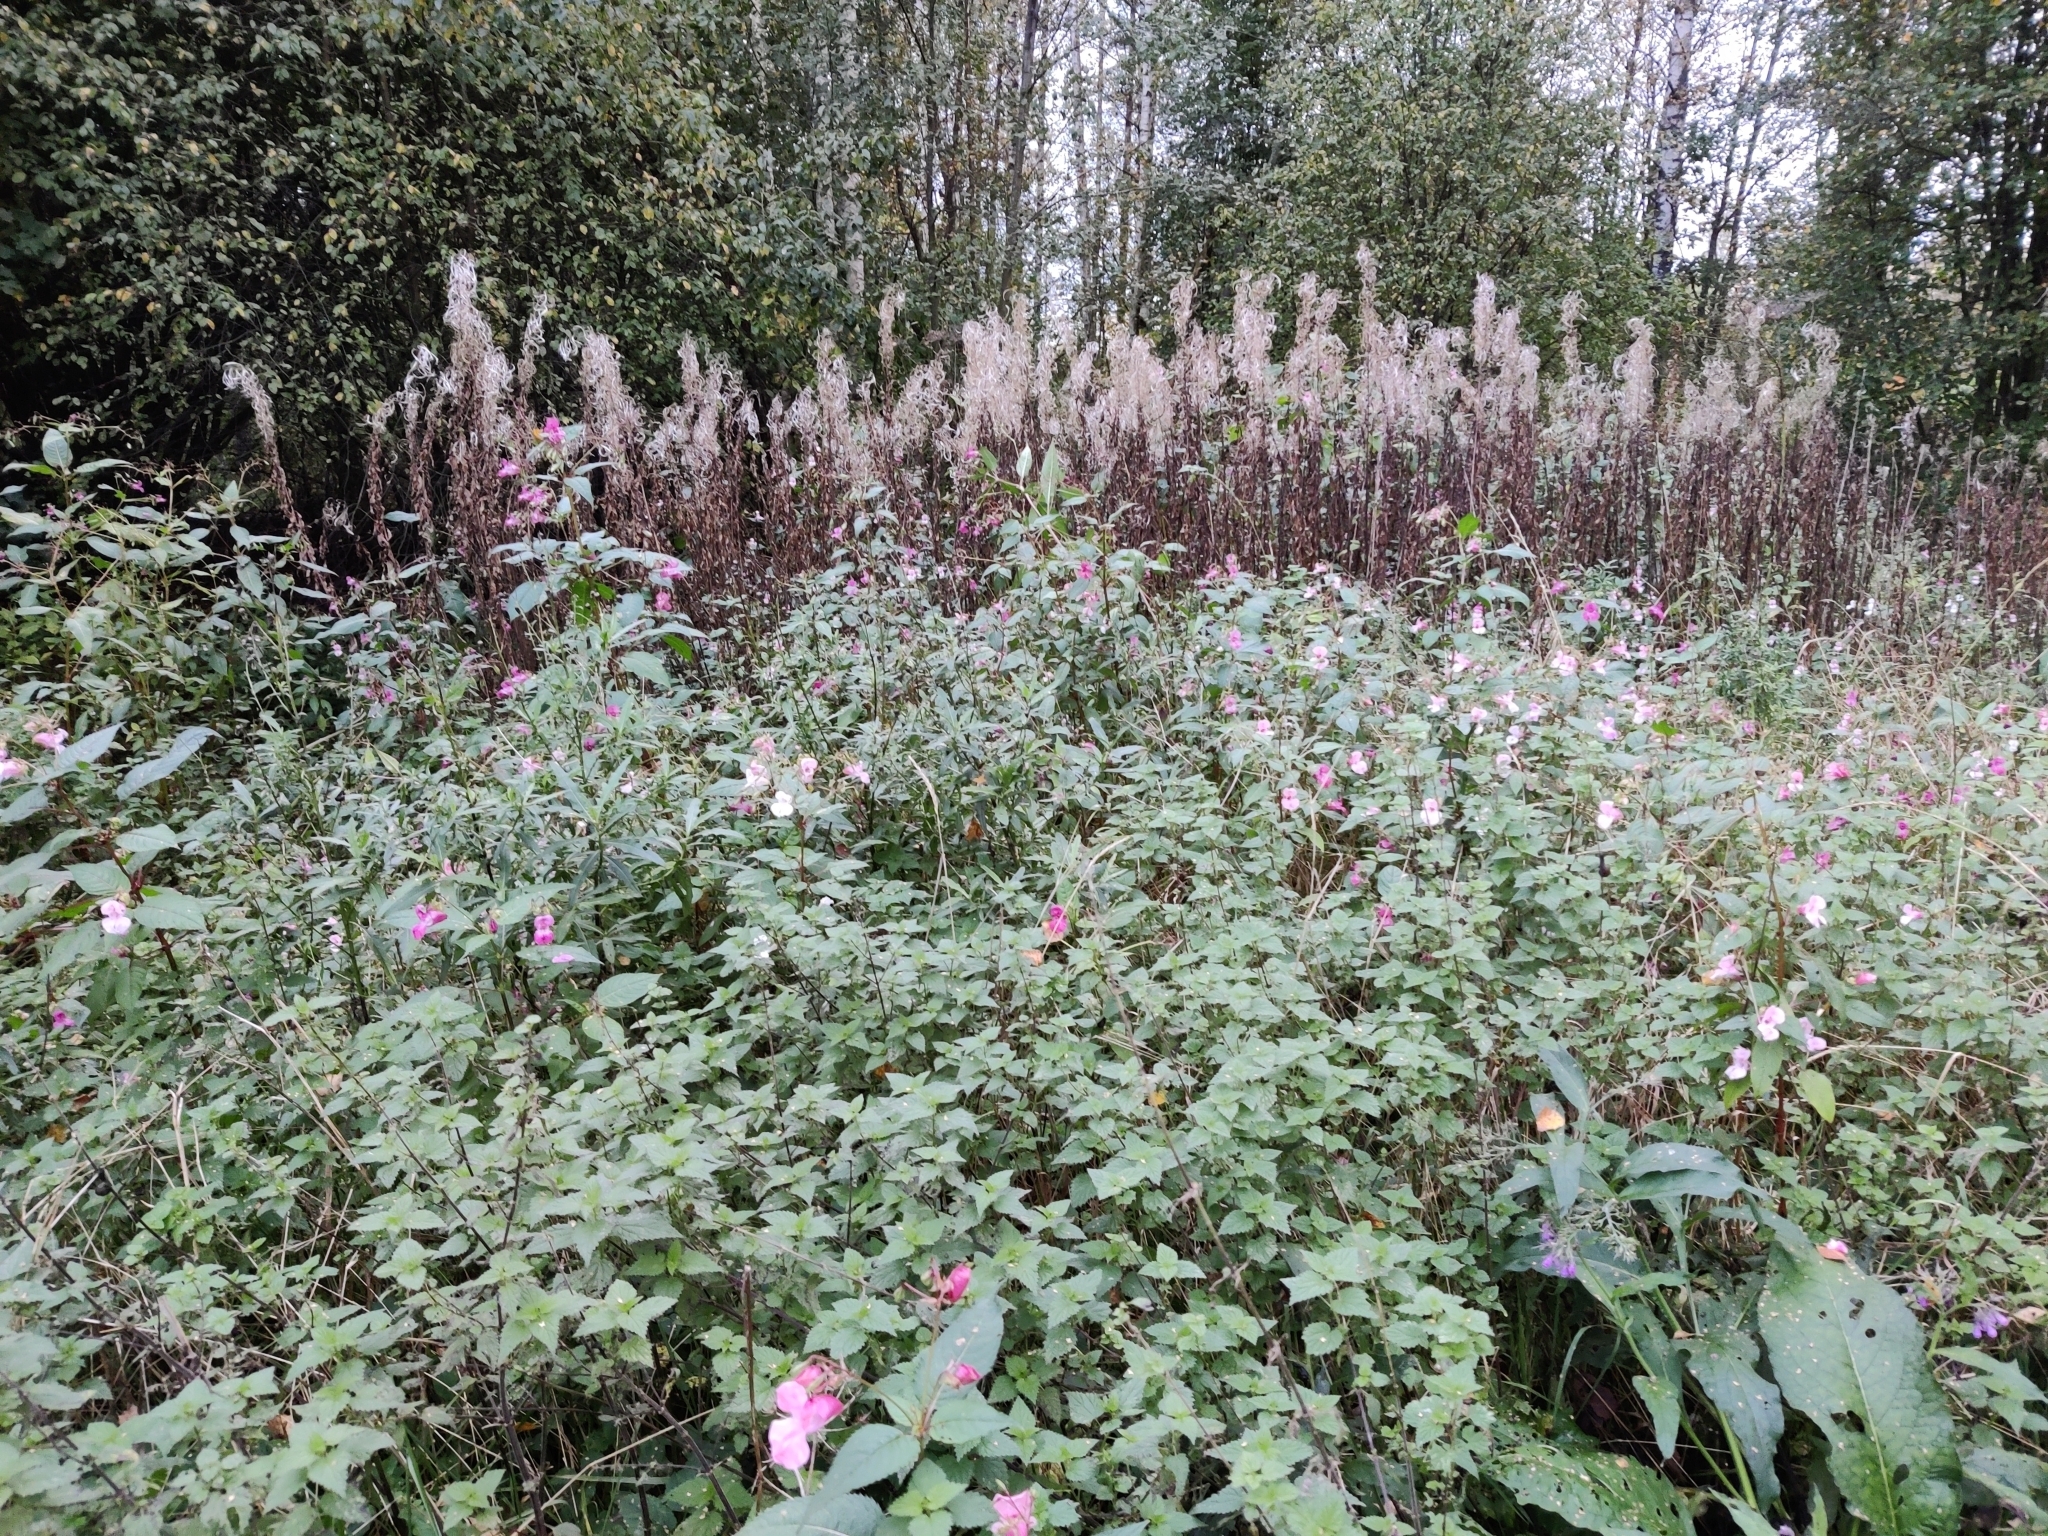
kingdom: Plantae
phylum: Tracheophyta
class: Magnoliopsida
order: Ericales
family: Balsaminaceae
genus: Impatiens
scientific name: Impatiens glandulifera
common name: Himalayan balsam
